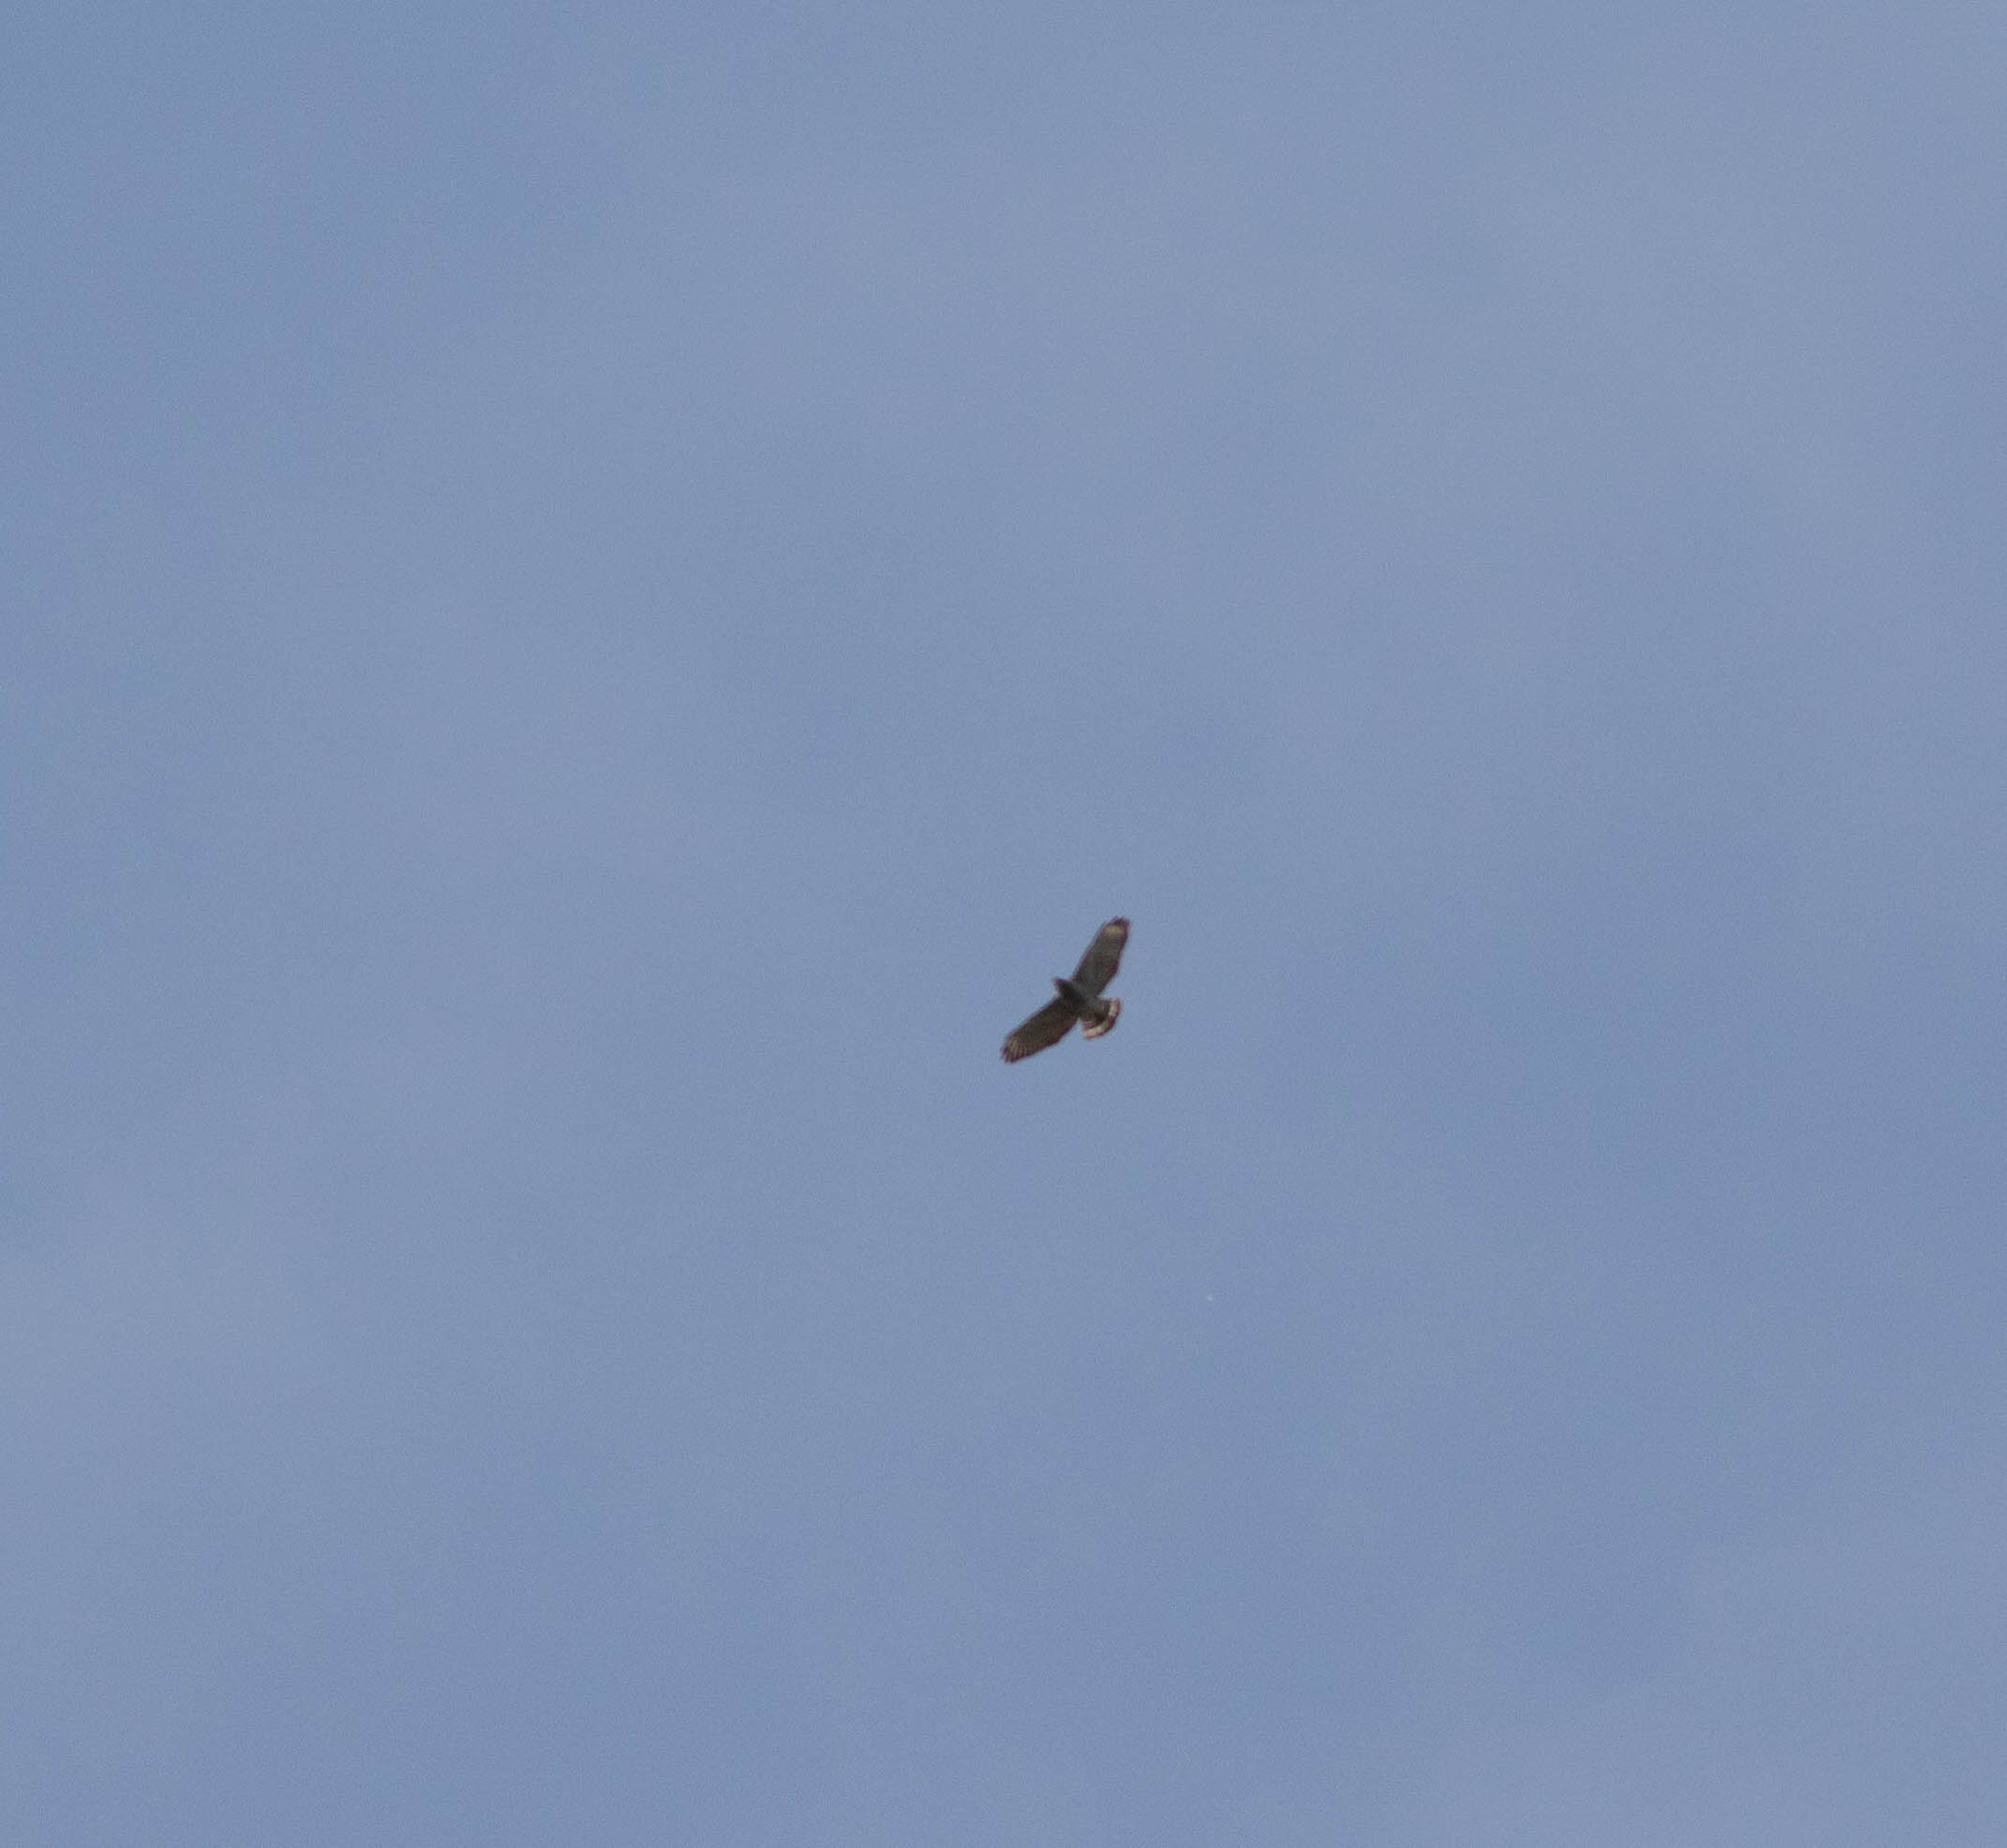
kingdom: Animalia
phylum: Chordata
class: Aves
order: Accipitriformes
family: Accipitridae
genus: Buteo
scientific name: Buteo platypterus
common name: Broad-winged hawk
